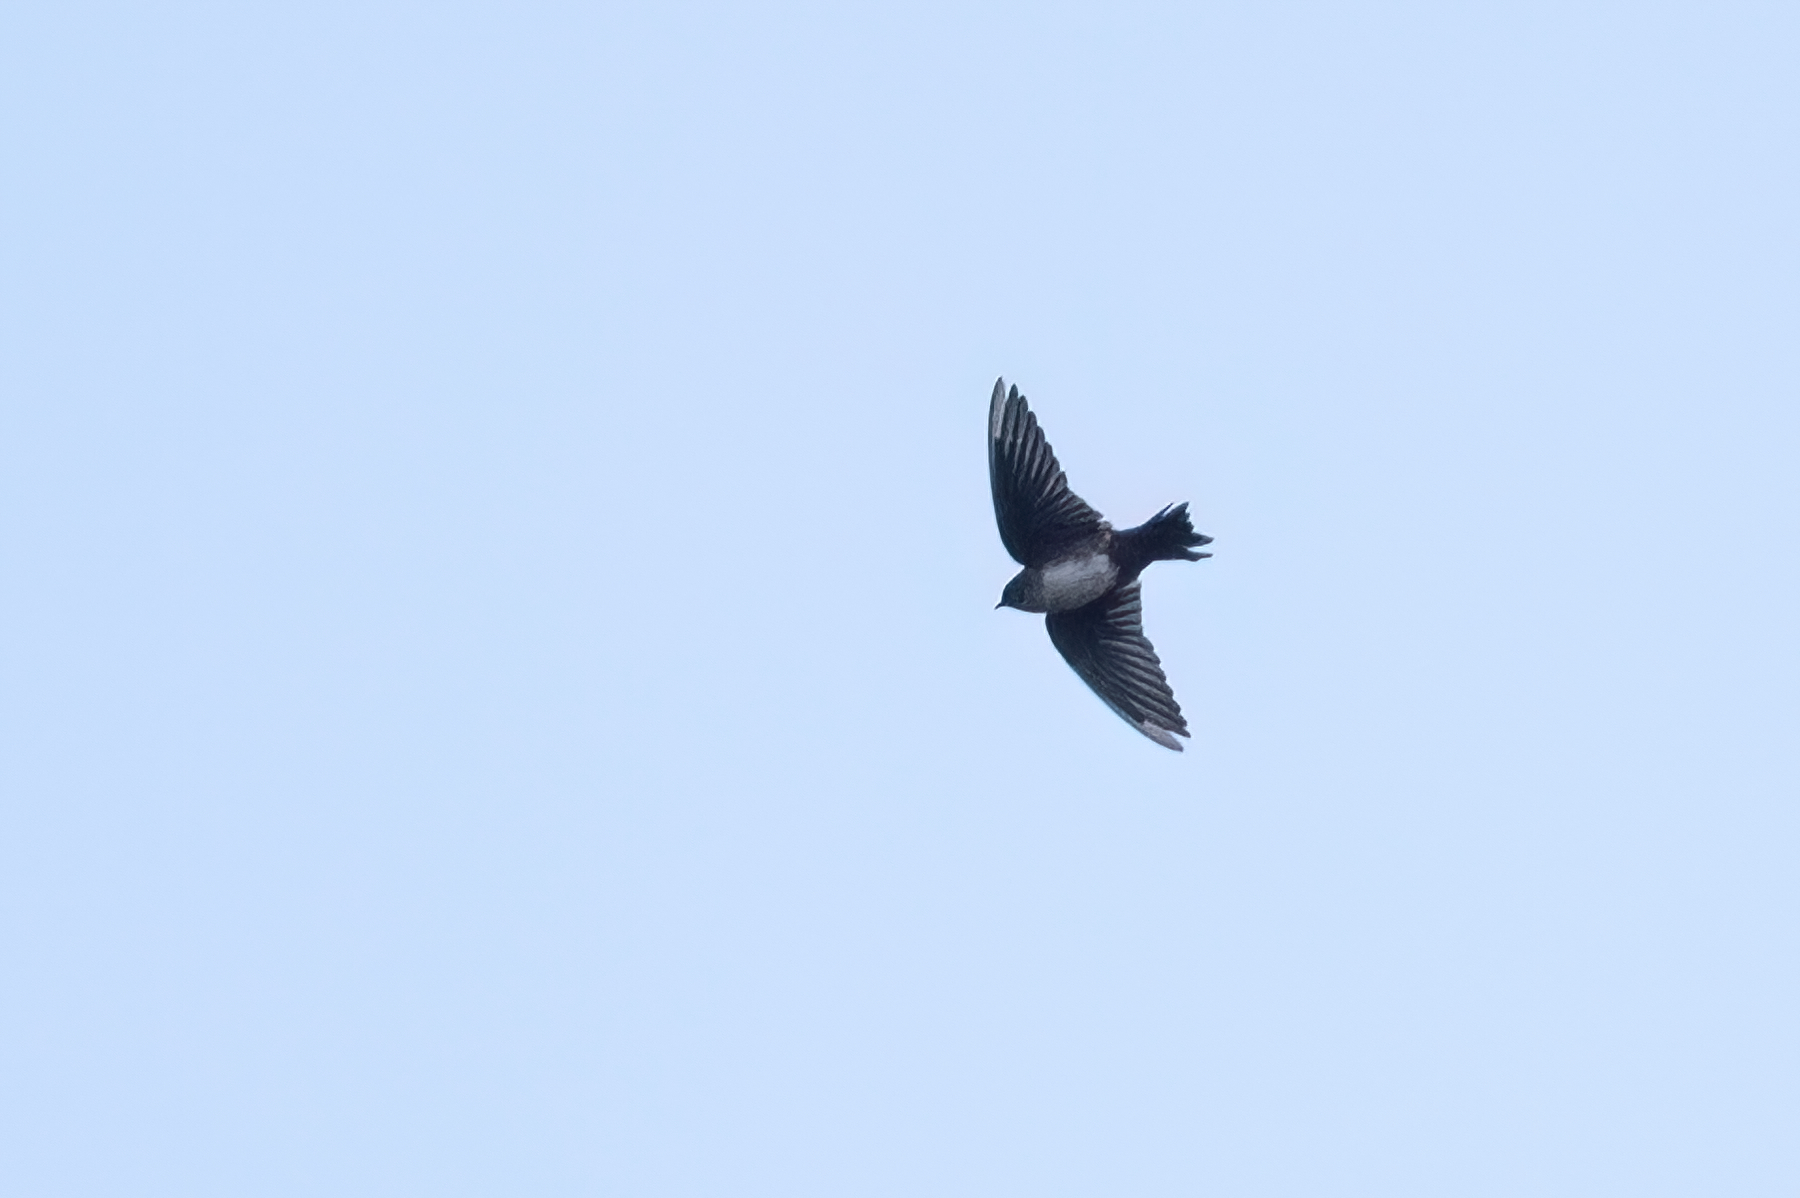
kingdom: Animalia
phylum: Chordata
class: Aves
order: Passeriformes
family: Hirundinidae
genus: Notiochelidon
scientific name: Notiochelidon pileata
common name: Black-capped swallow
